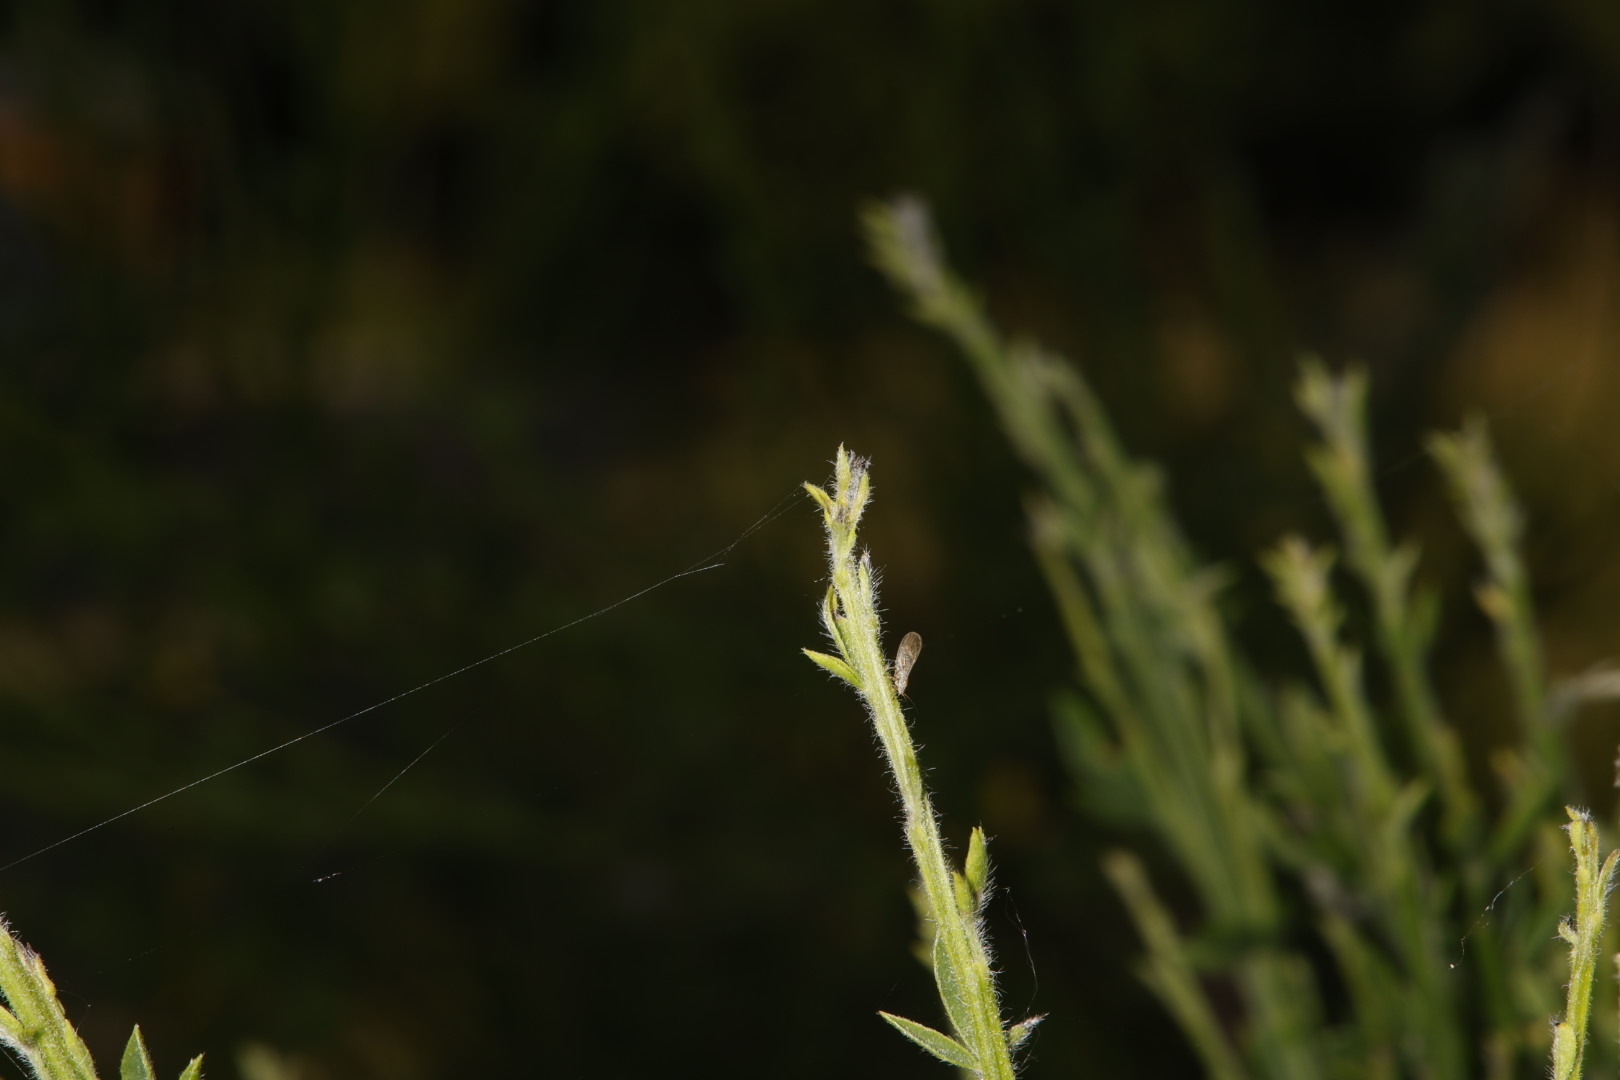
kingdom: Animalia
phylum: Arthropoda
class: Insecta
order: Hemiptera
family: Psyllidae
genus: Arytaina
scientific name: Arytaina genistae
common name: Psyllid
